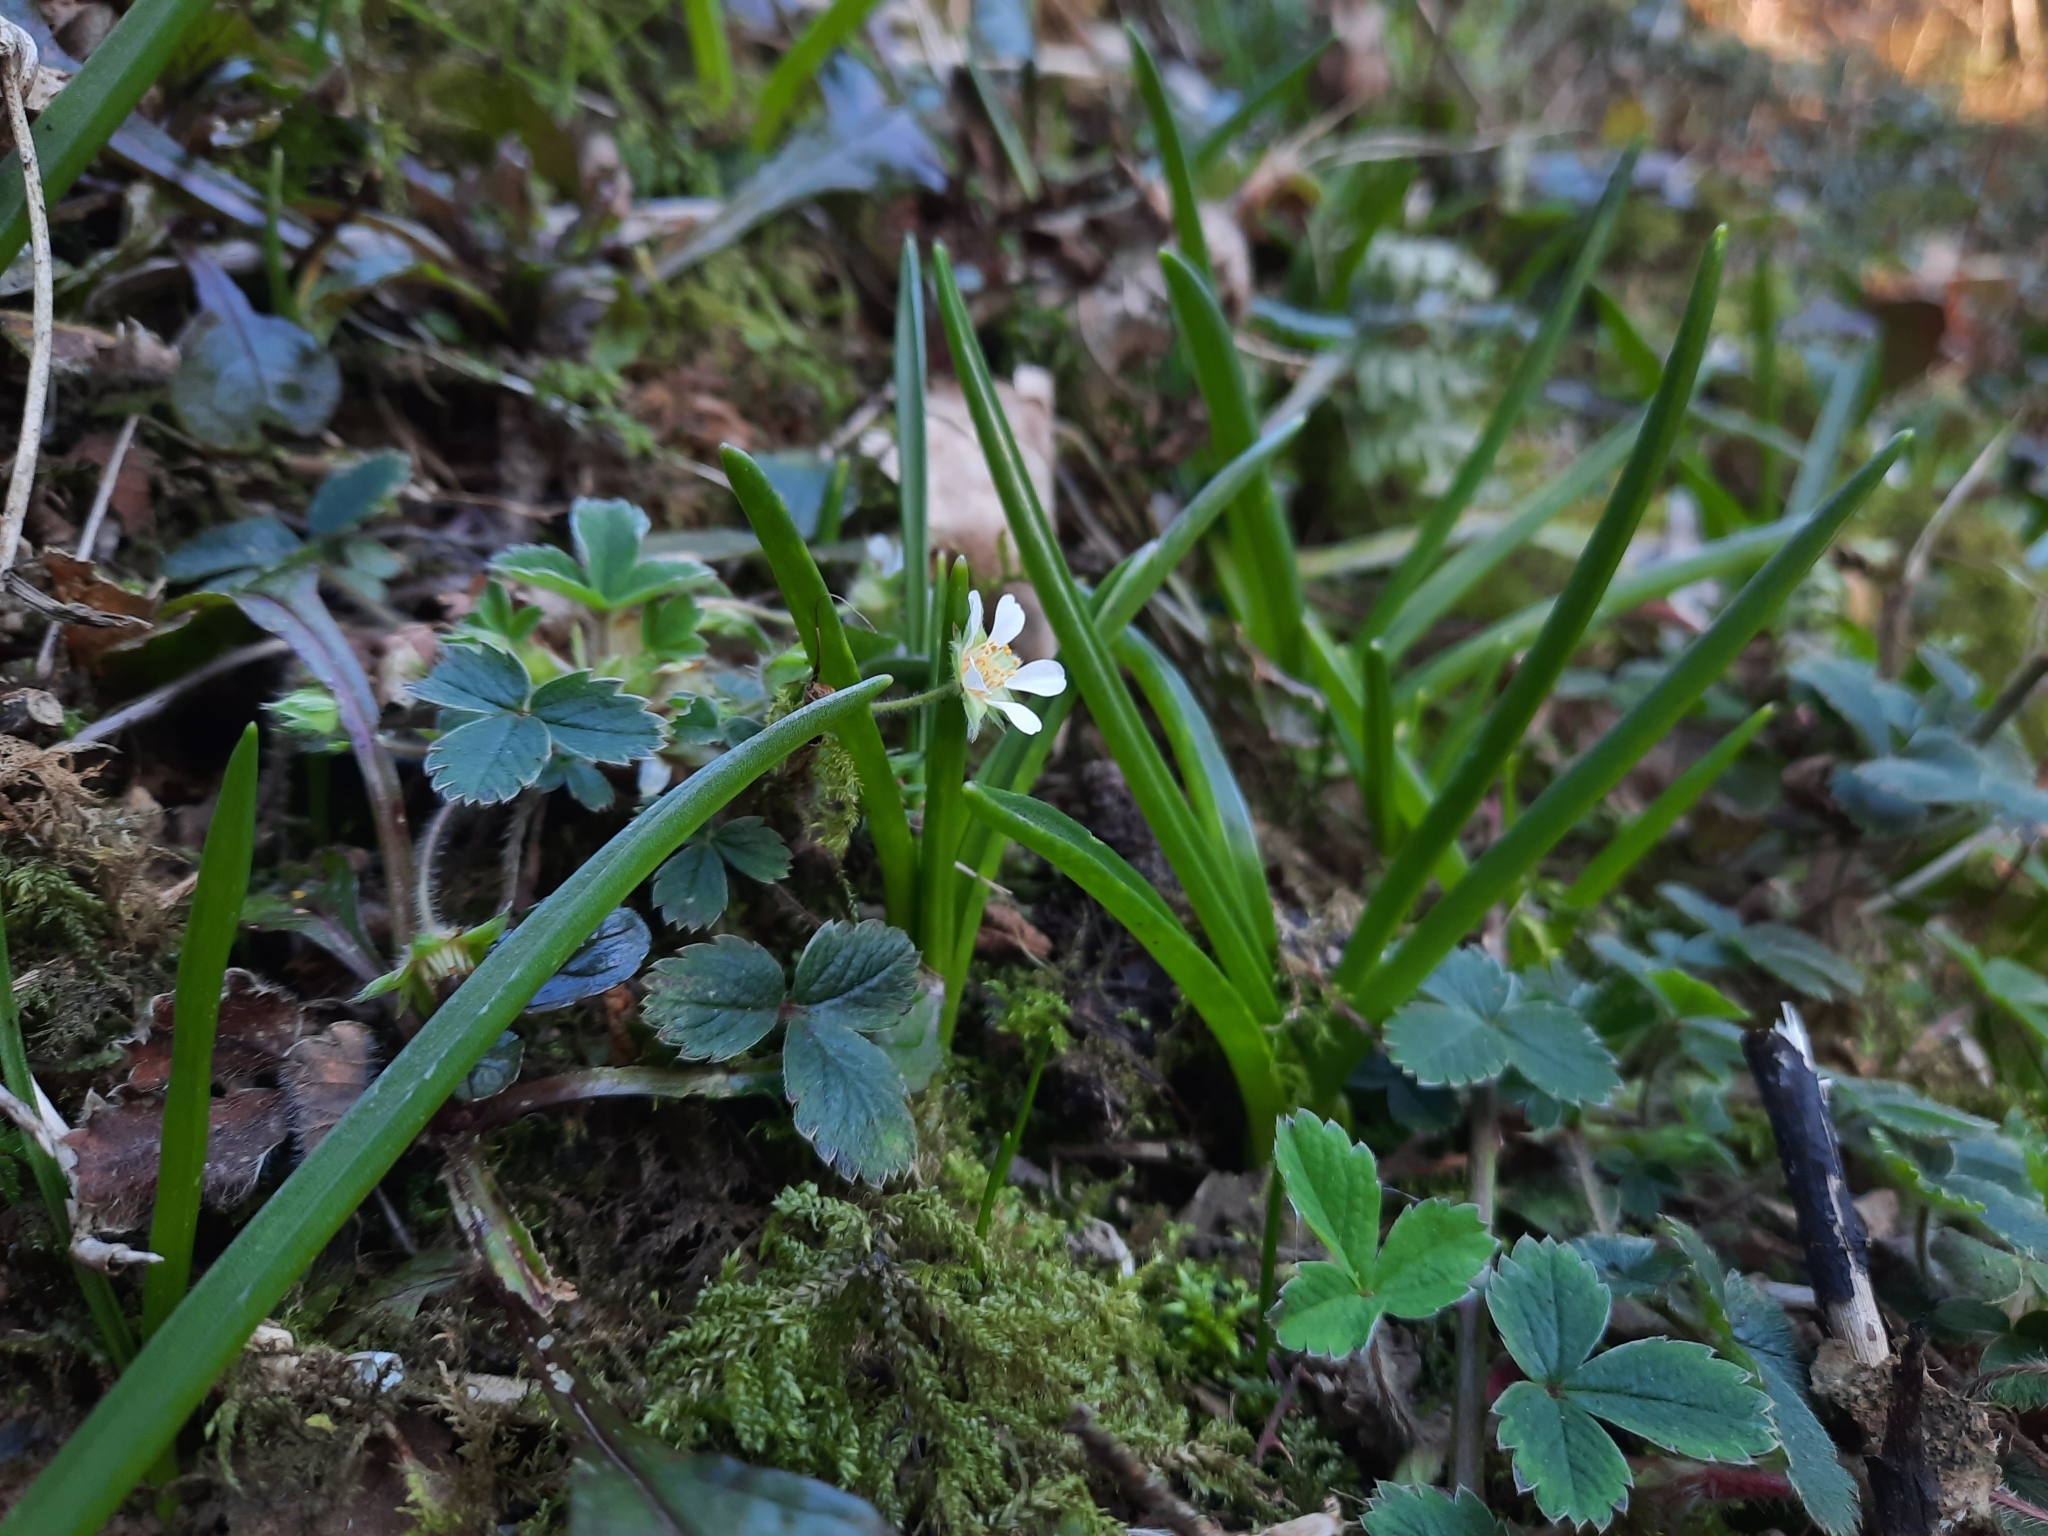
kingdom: Plantae
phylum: Tracheophyta
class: Magnoliopsida
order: Rosales
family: Rosaceae
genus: Potentilla
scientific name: Potentilla sterilis
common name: Barren strawberry
